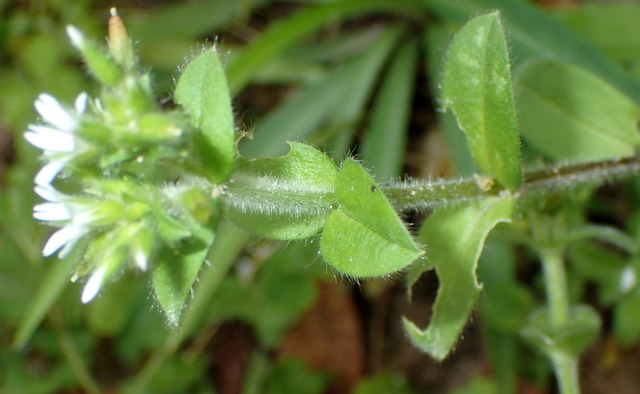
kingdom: Plantae
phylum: Tracheophyta
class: Magnoliopsida
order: Caryophyllales
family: Caryophyllaceae
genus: Cerastium
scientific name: Cerastium glomeratum
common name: Sticky chickweed
